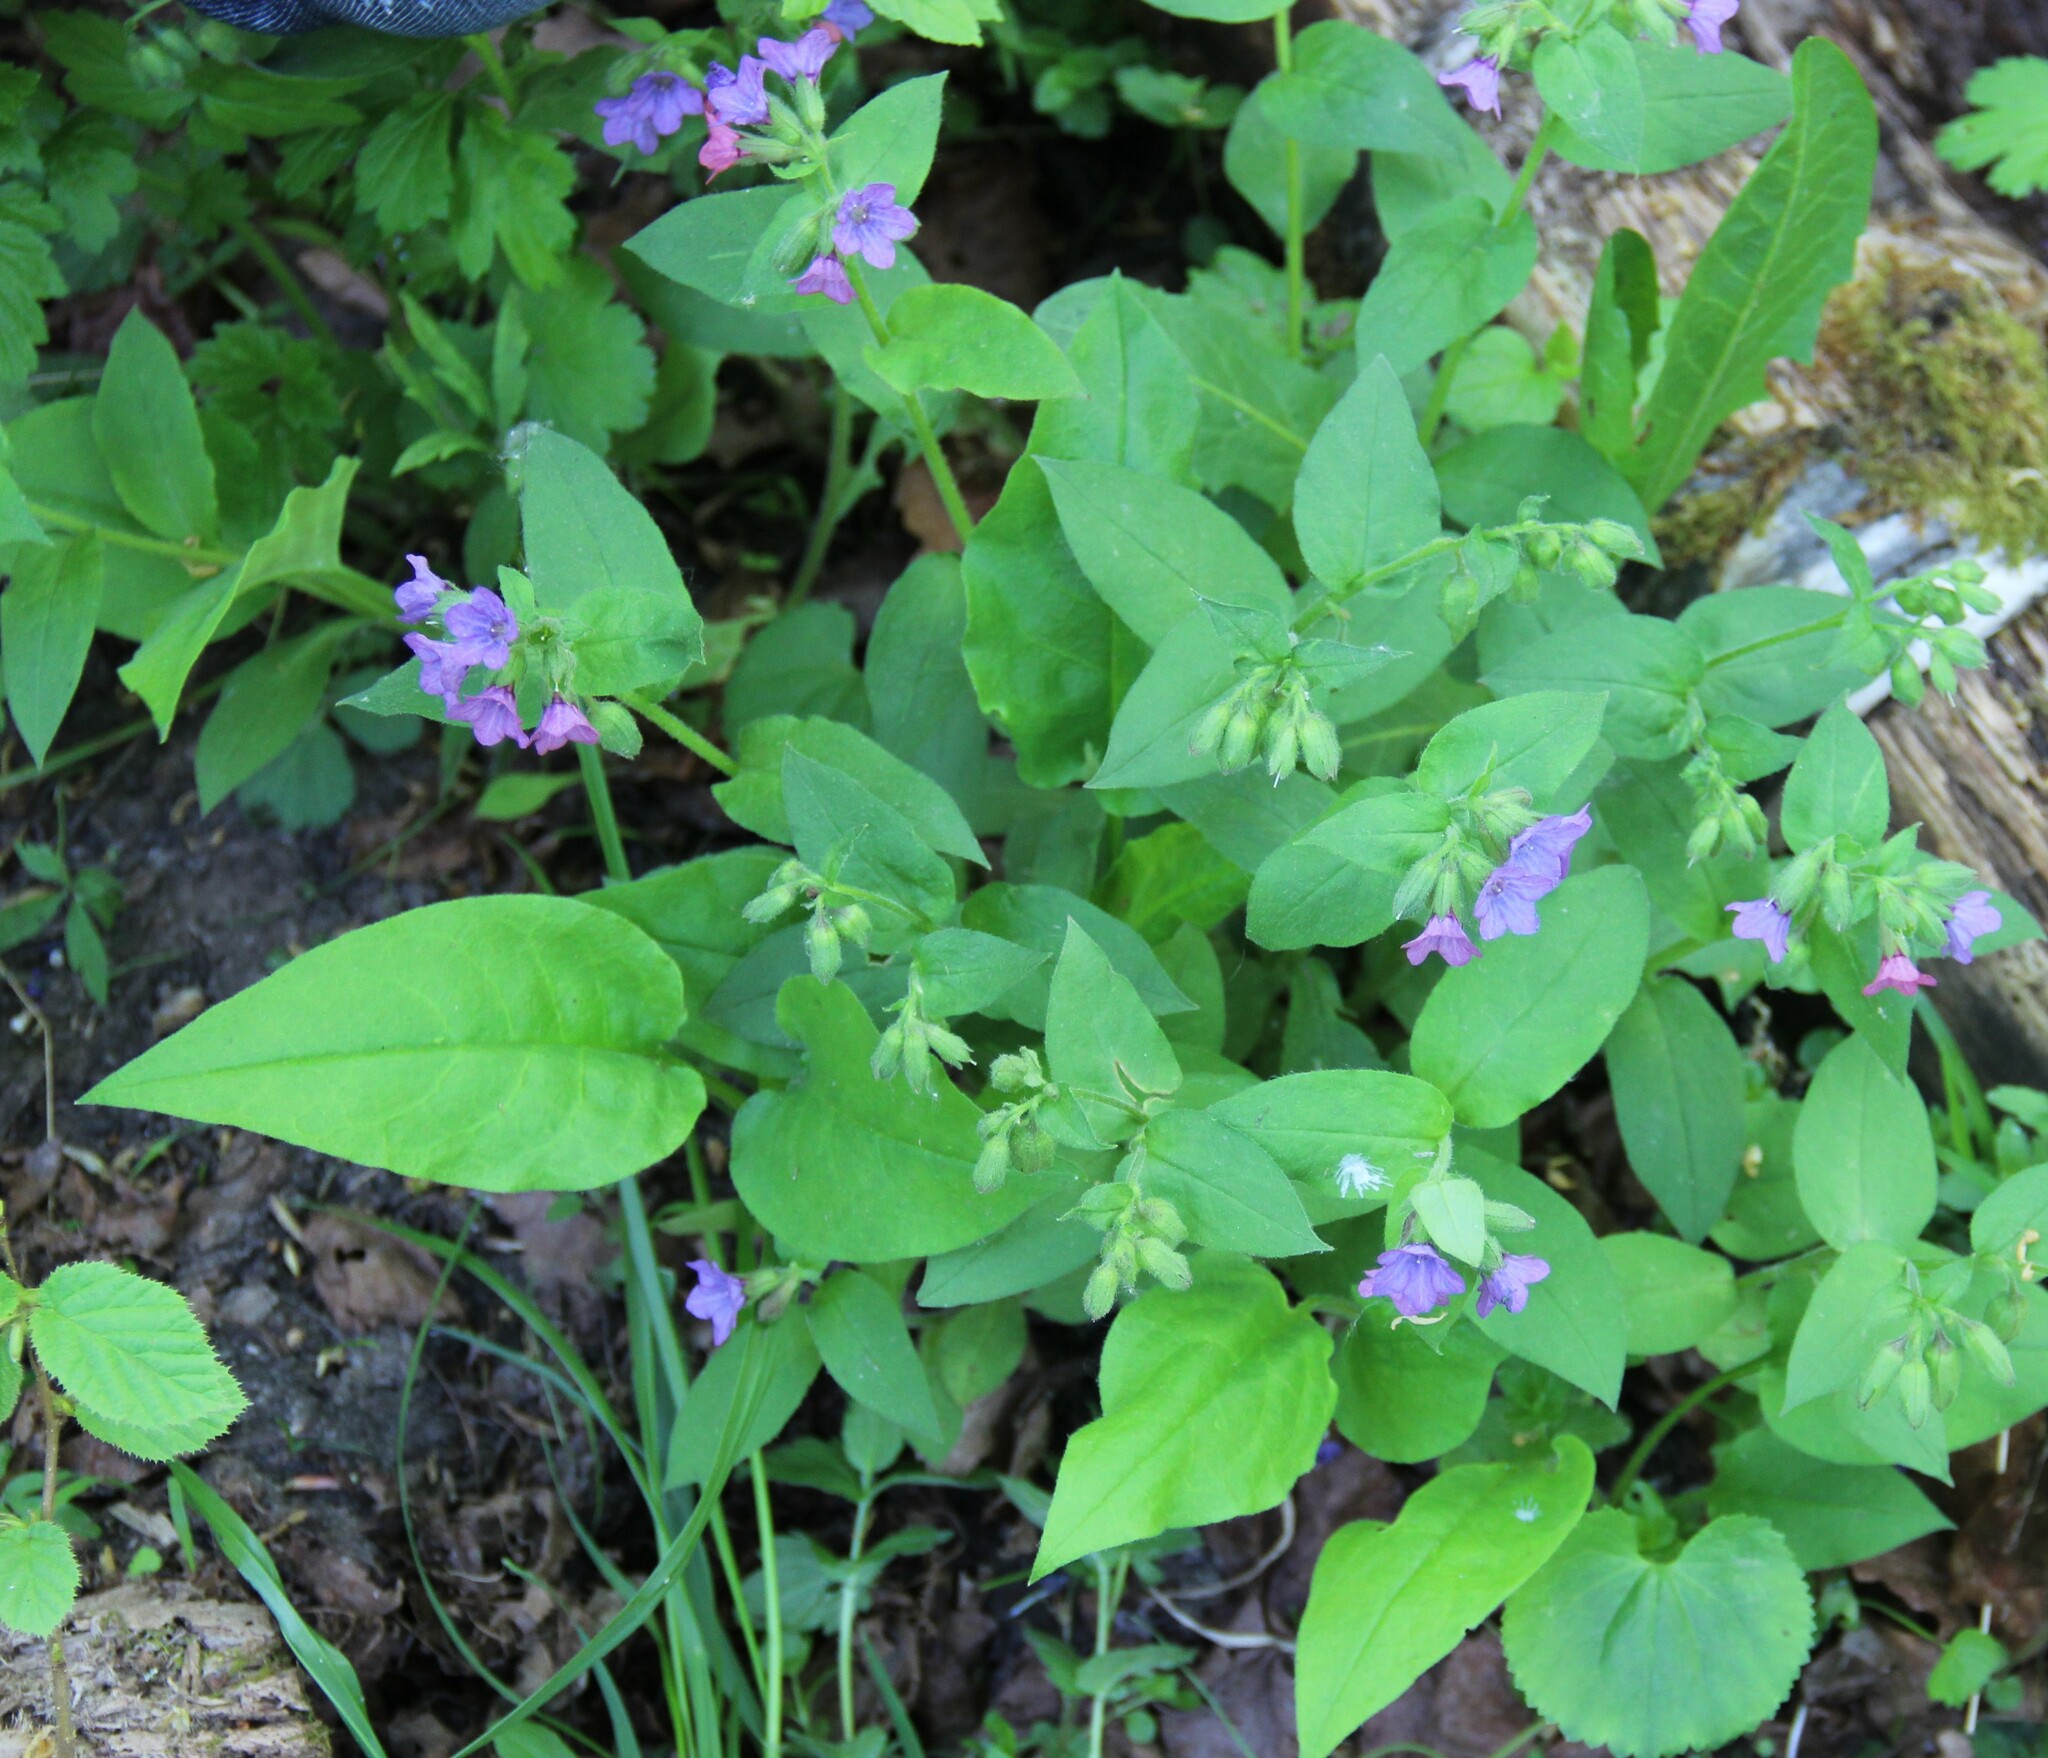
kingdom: Plantae
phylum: Tracheophyta
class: Magnoliopsida
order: Boraginales
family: Boraginaceae
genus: Pulmonaria
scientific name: Pulmonaria obscura
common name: Suffolk lungwort
